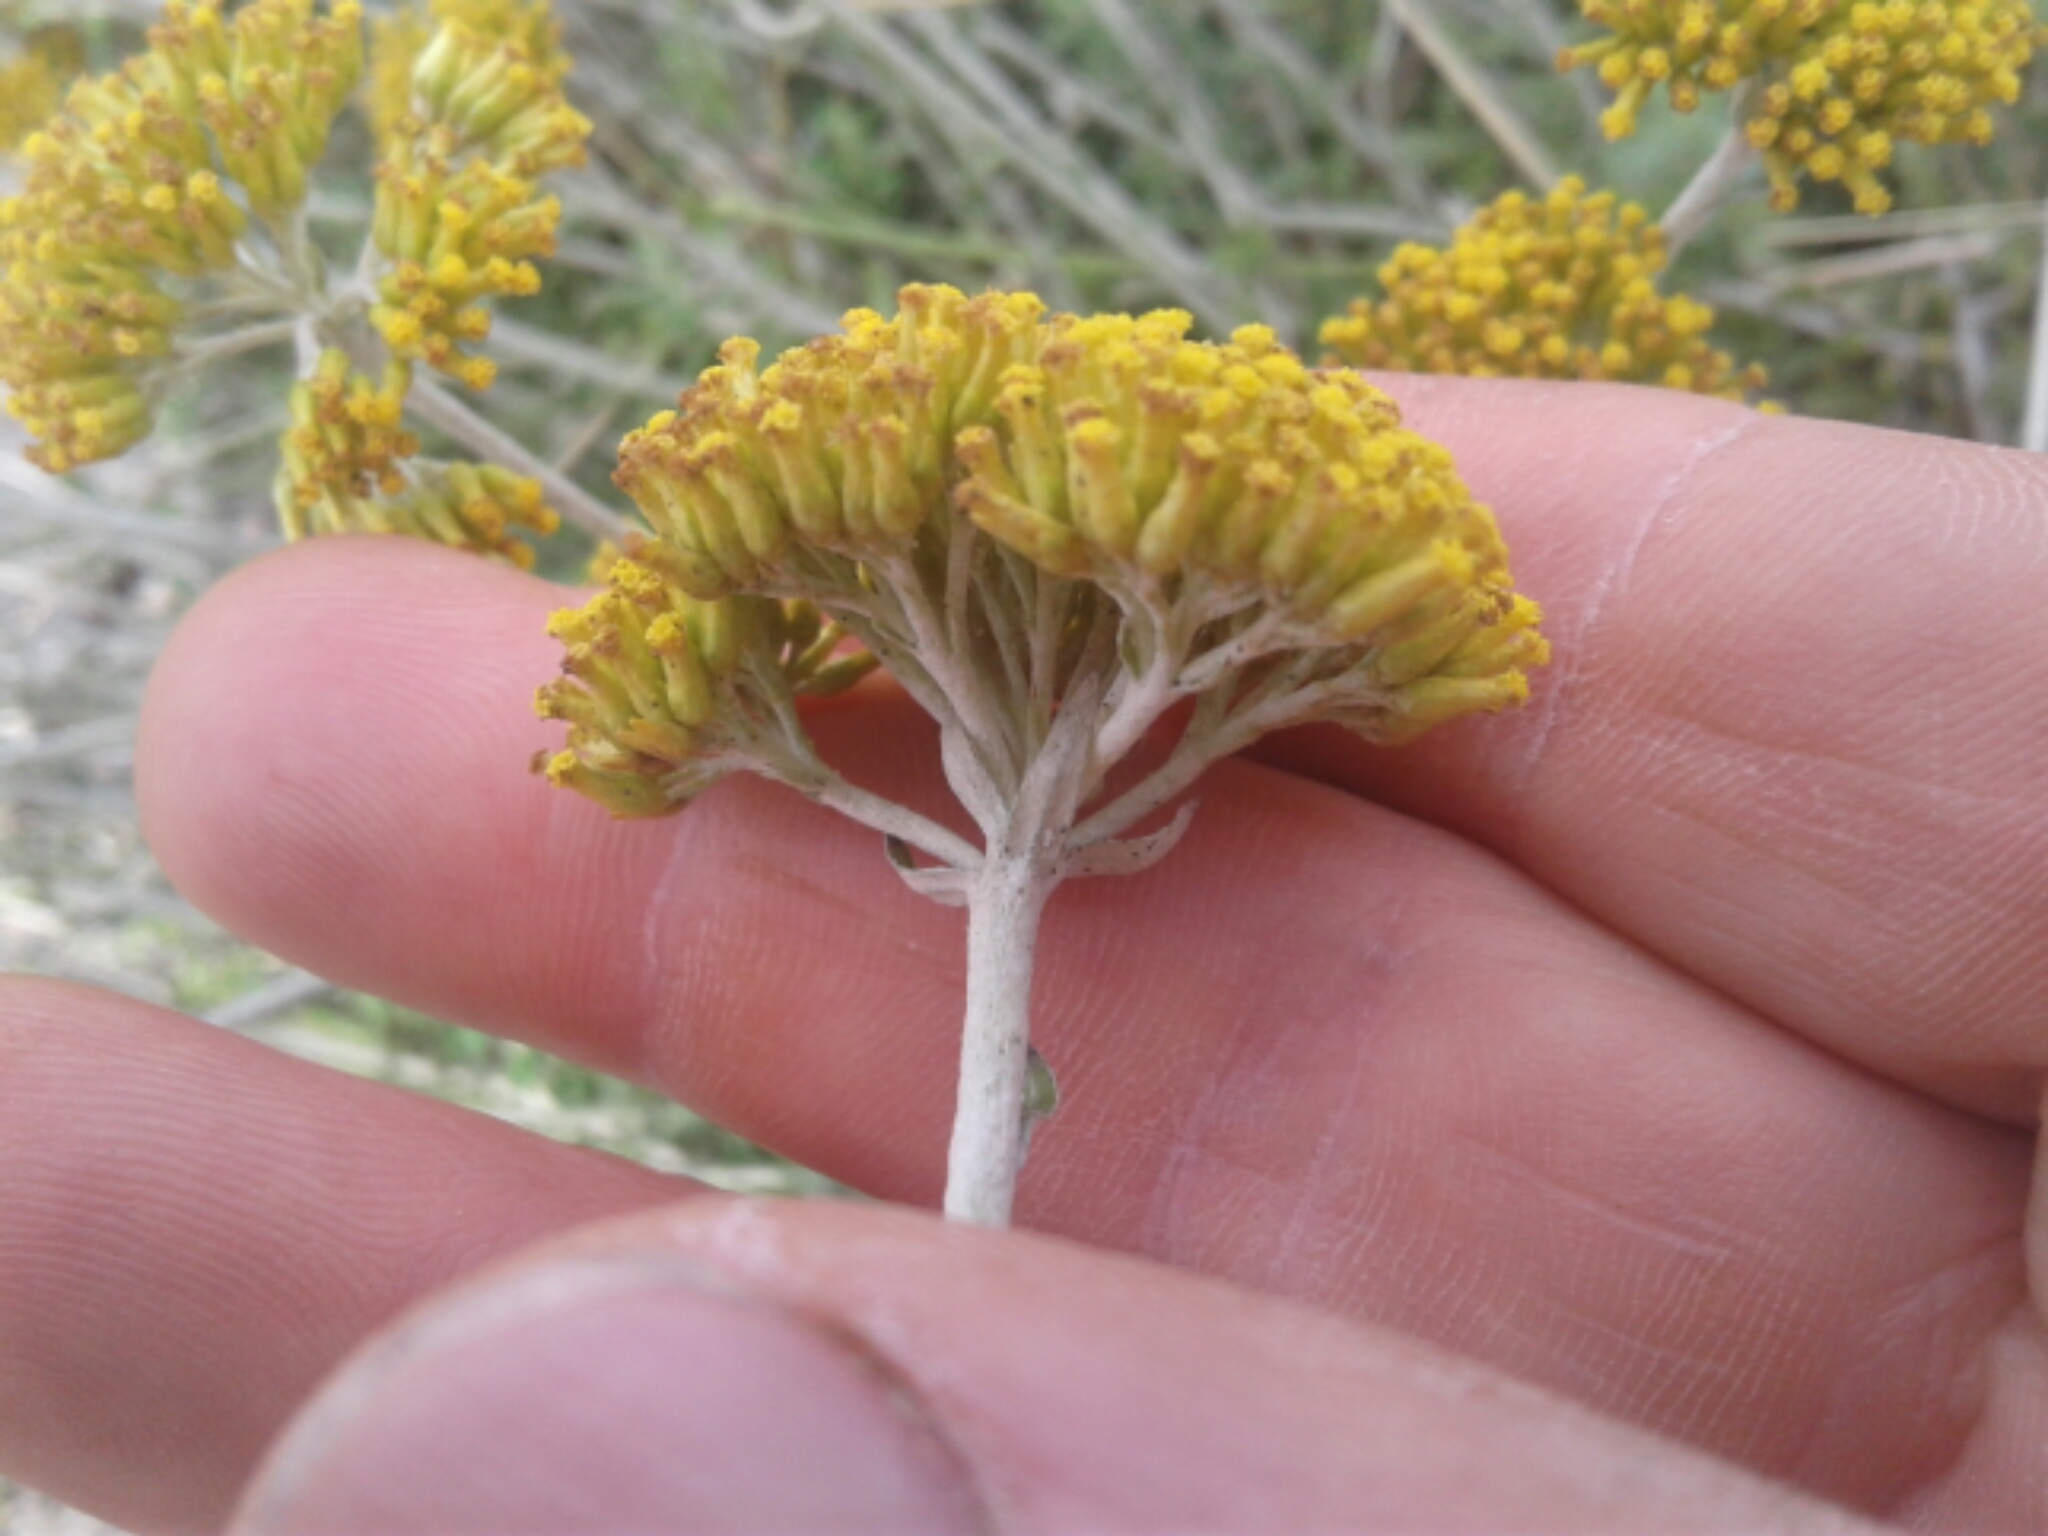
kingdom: Plantae
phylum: Tracheophyta
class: Magnoliopsida
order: Asterales
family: Asteraceae
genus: Helichrysum
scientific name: Helichrysum cymosum
